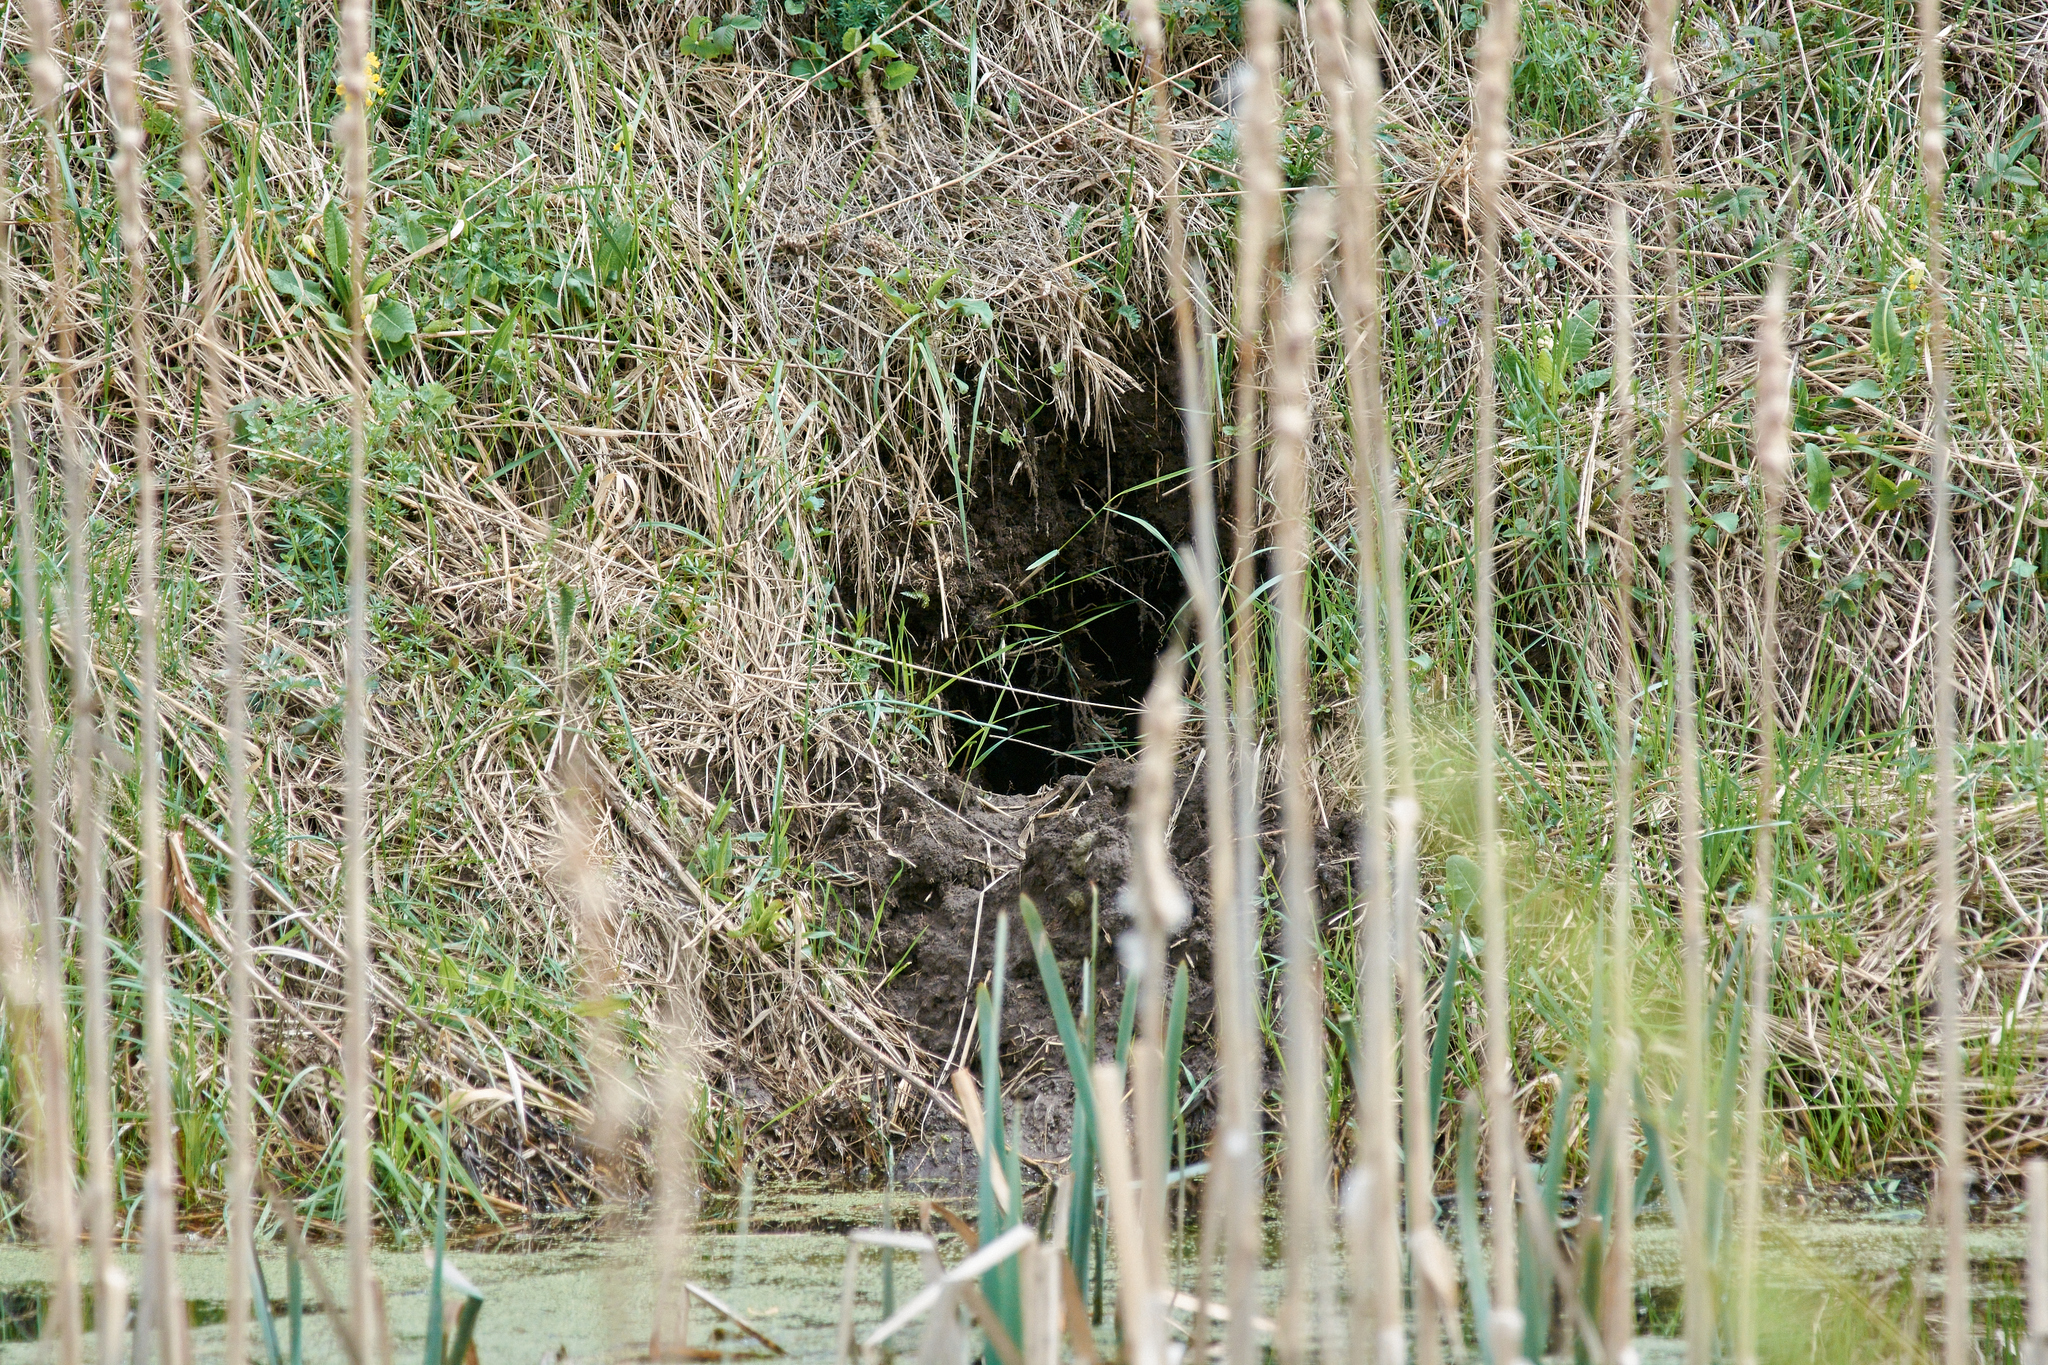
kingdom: Animalia
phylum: Chordata
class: Mammalia
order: Rodentia
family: Castoridae
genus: Castor
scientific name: Castor fiber
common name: Eurasian beaver
